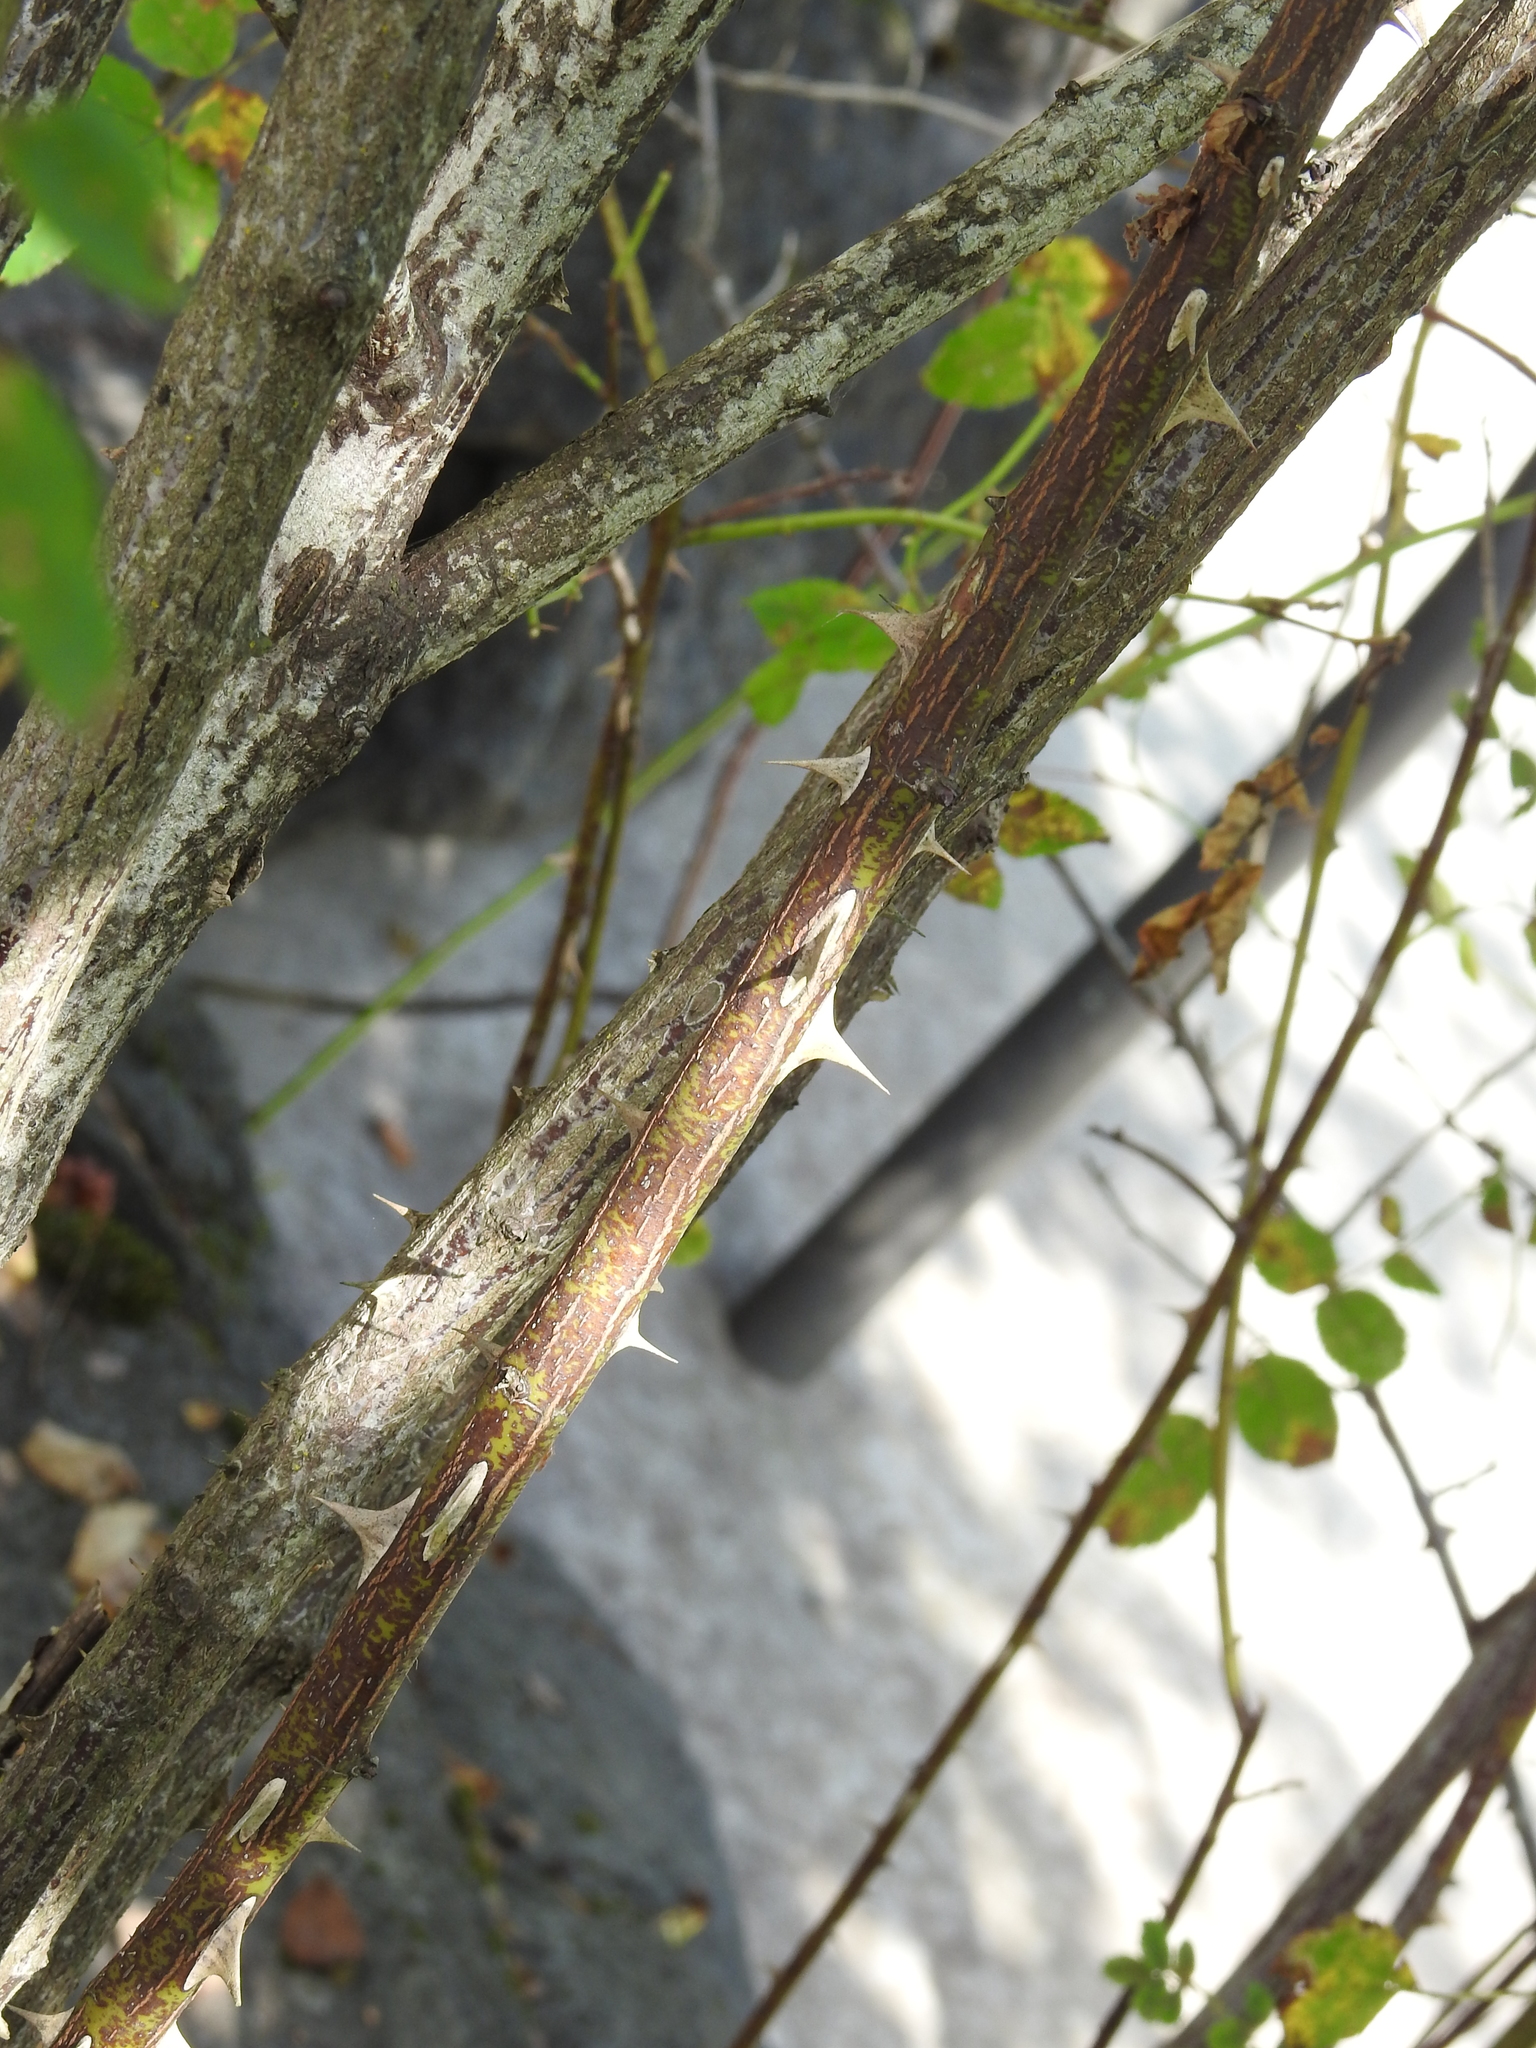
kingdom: Plantae
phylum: Tracheophyta
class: Magnoliopsida
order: Rosales
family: Rosaceae
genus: Rosa
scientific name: Rosa nutkana
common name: Nootka rose
